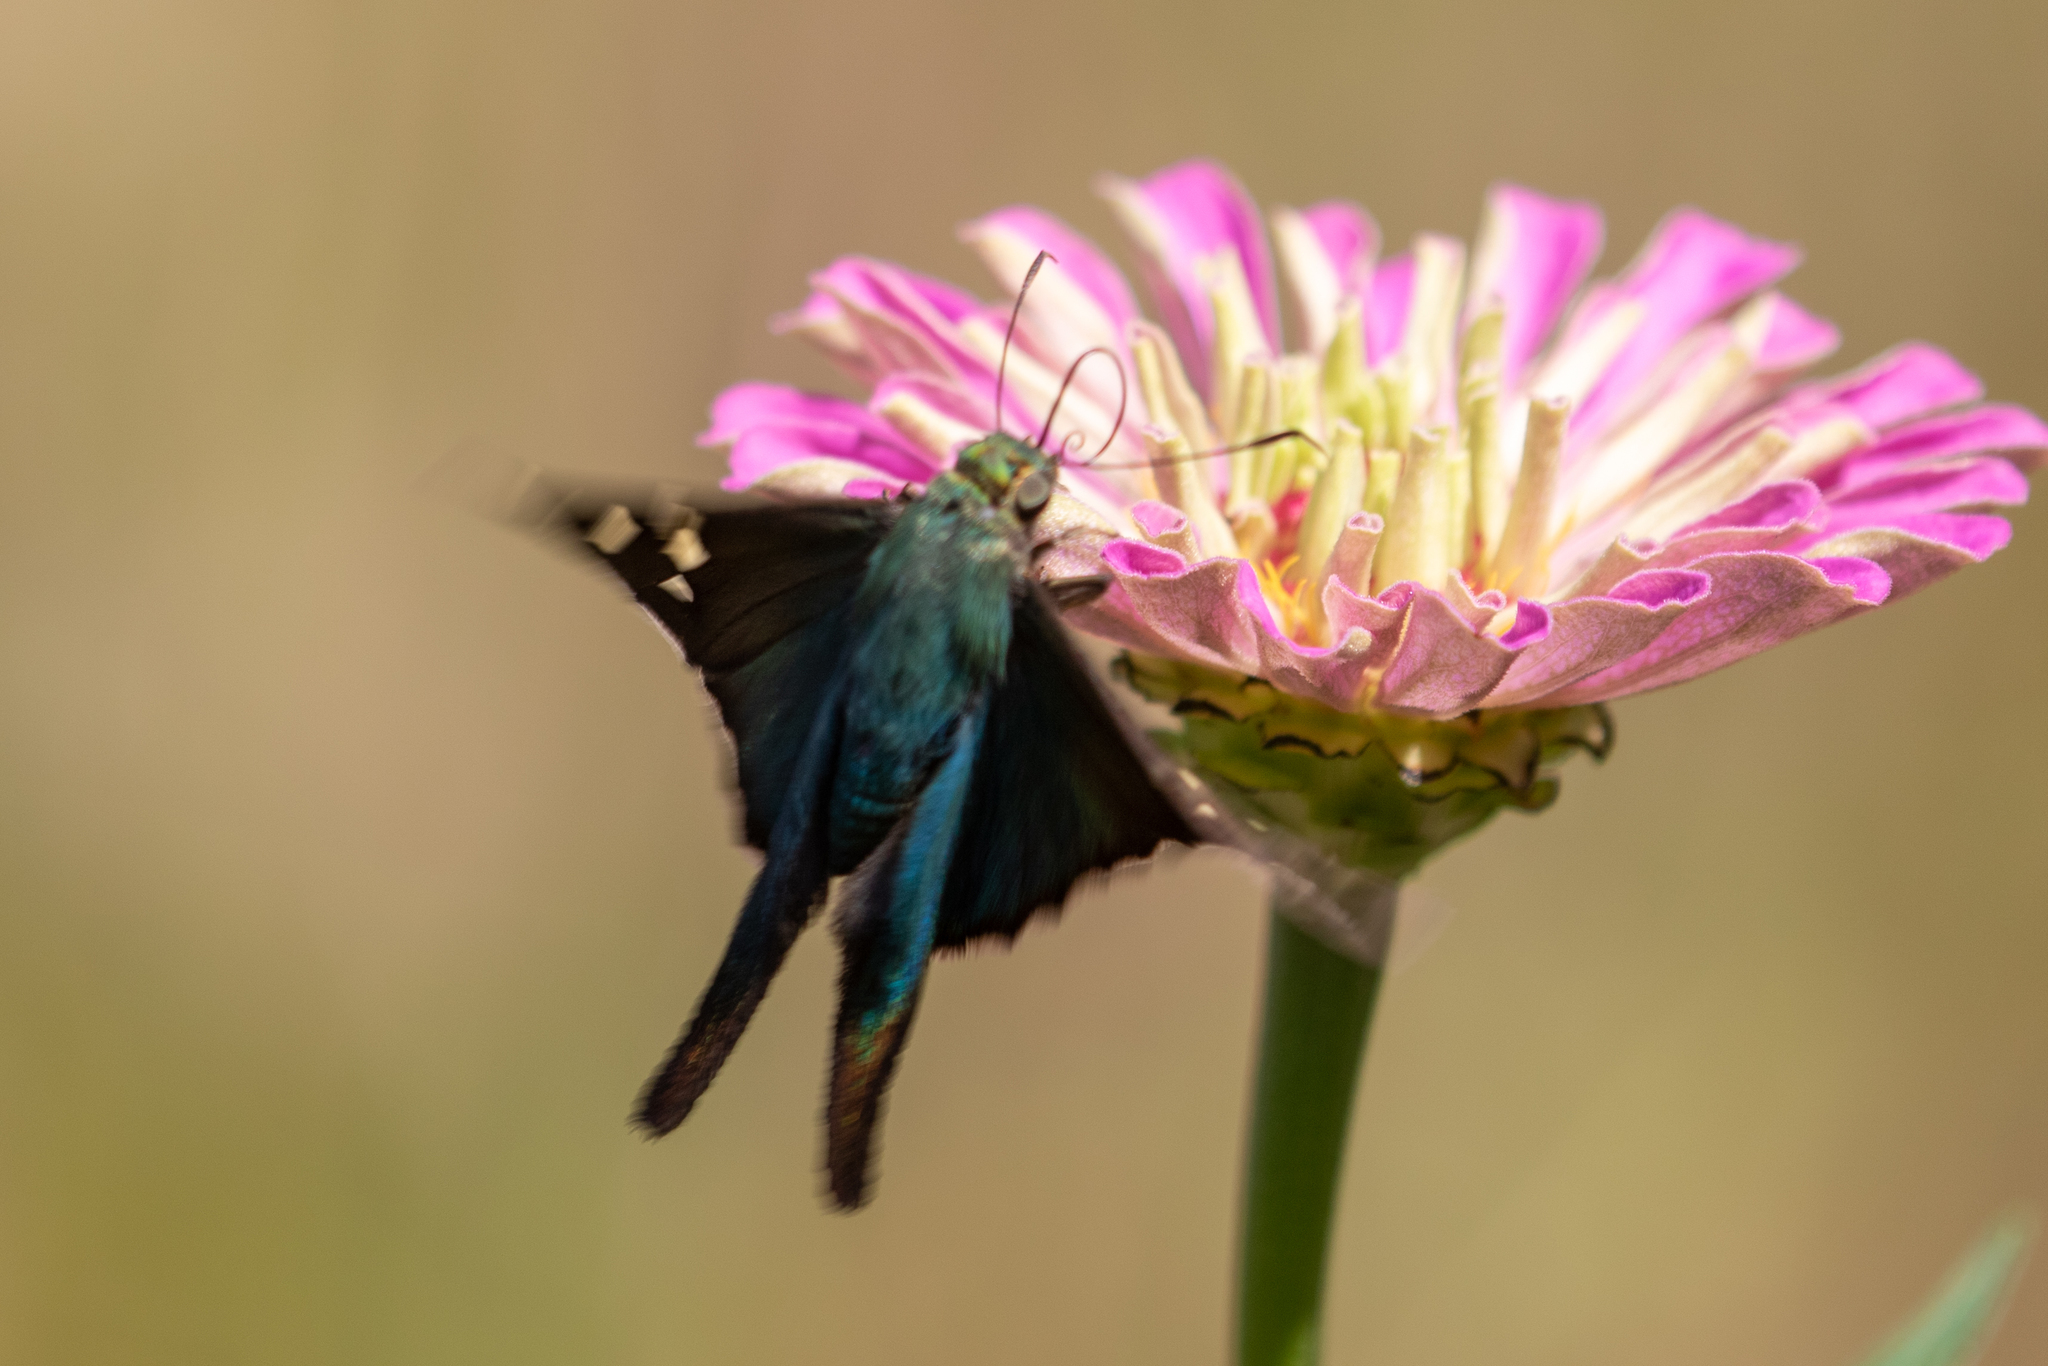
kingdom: Animalia
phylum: Arthropoda
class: Insecta
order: Lepidoptera
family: Hesperiidae
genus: Urbanus
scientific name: Urbanus proteus
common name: Long-tailed skipper
